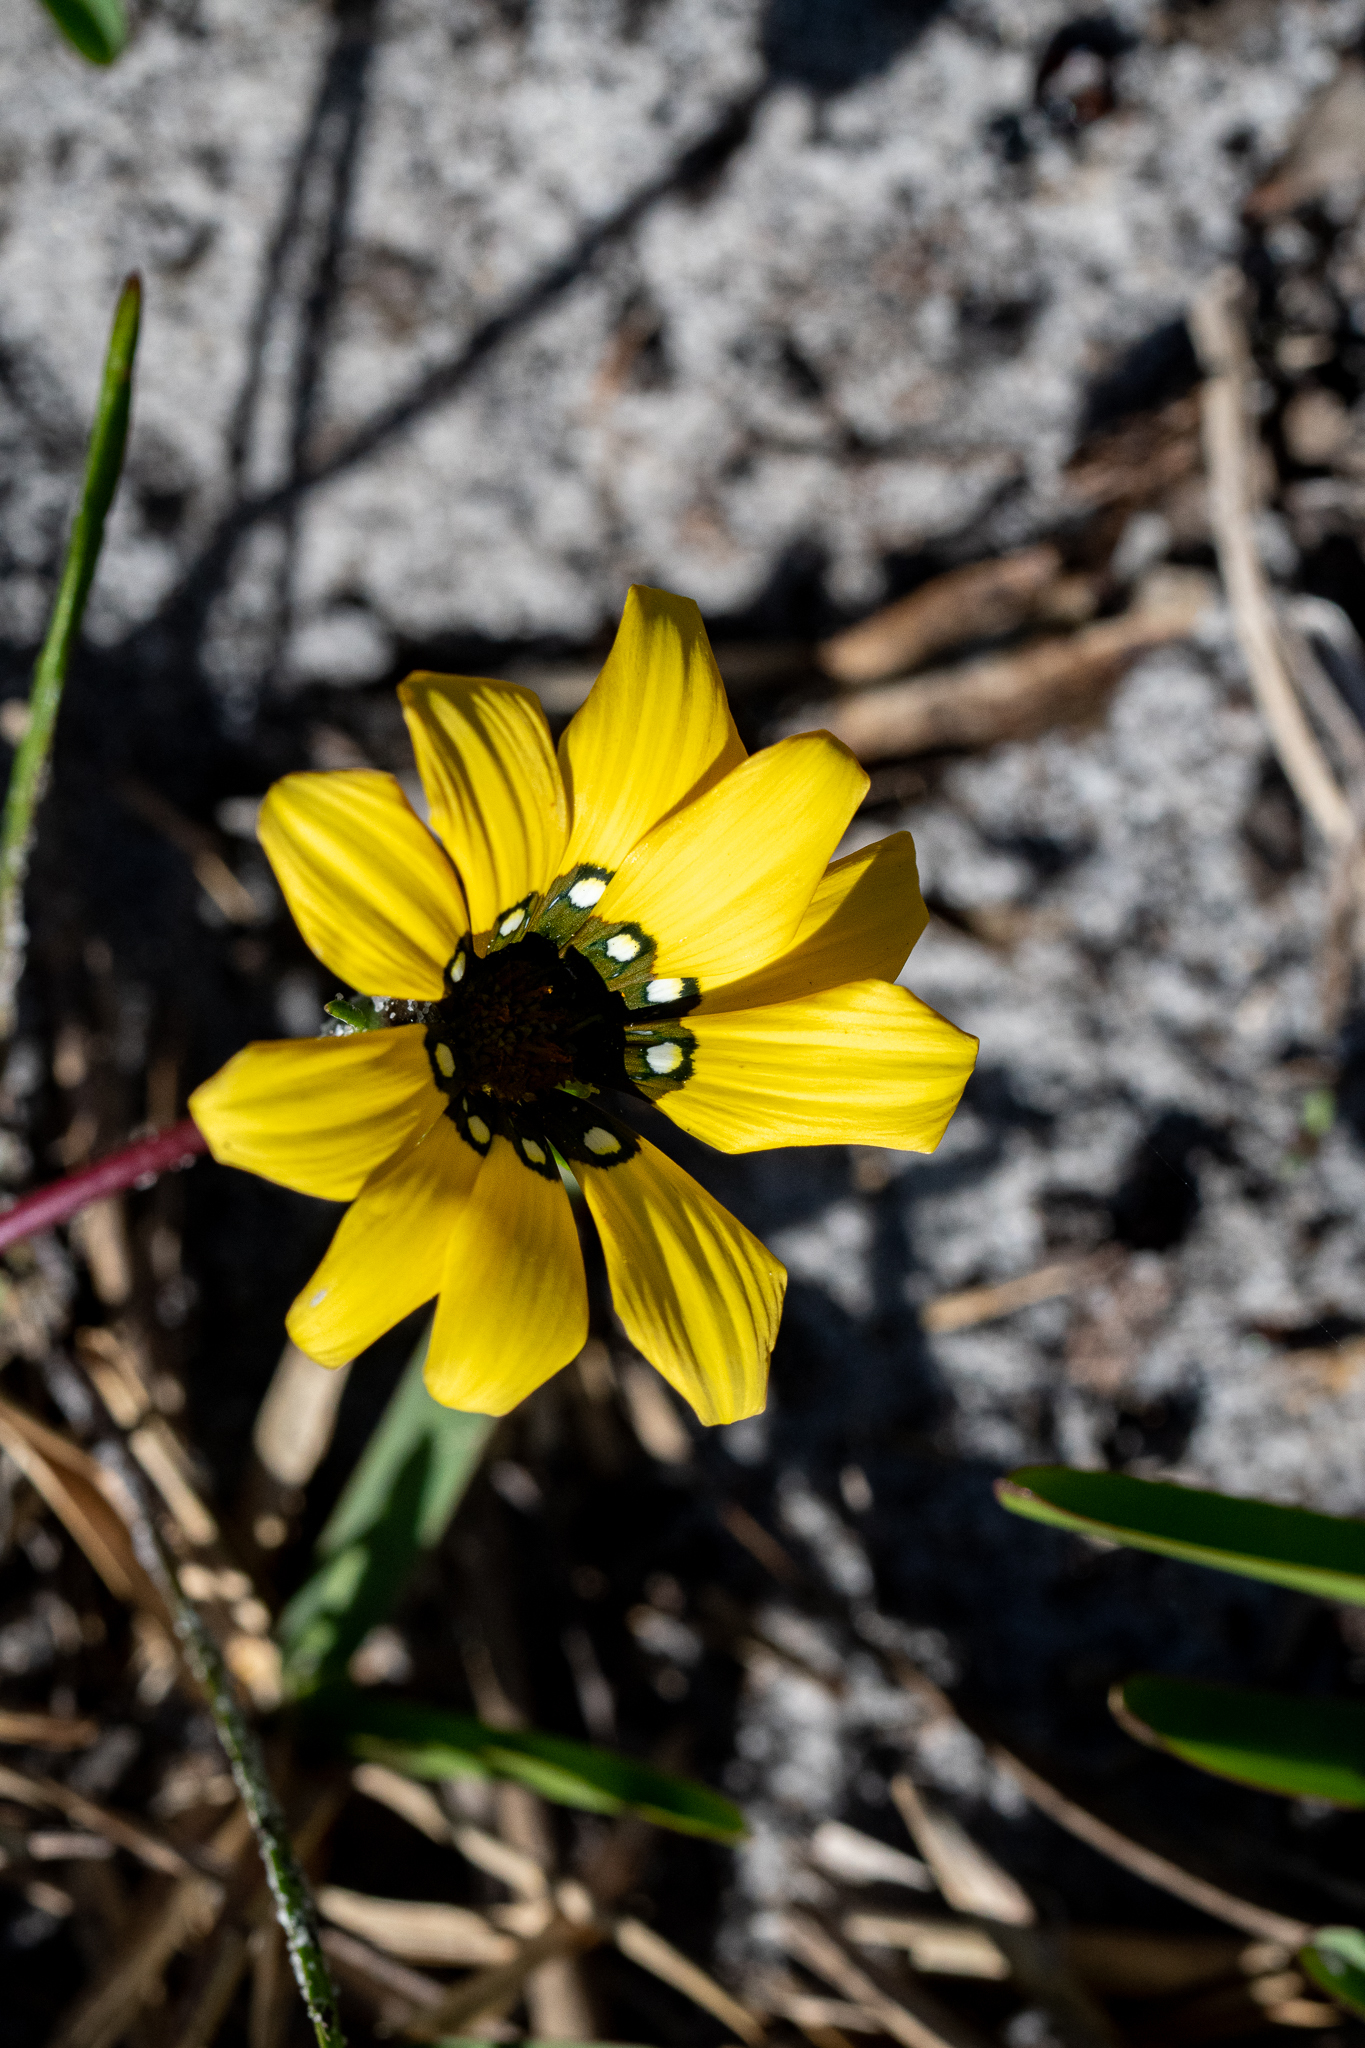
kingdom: Plantae
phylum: Tracheophyta
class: Magnoliopsida
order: Asterales
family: Asteraceae
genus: Gazania
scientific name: Gazania pectinata
